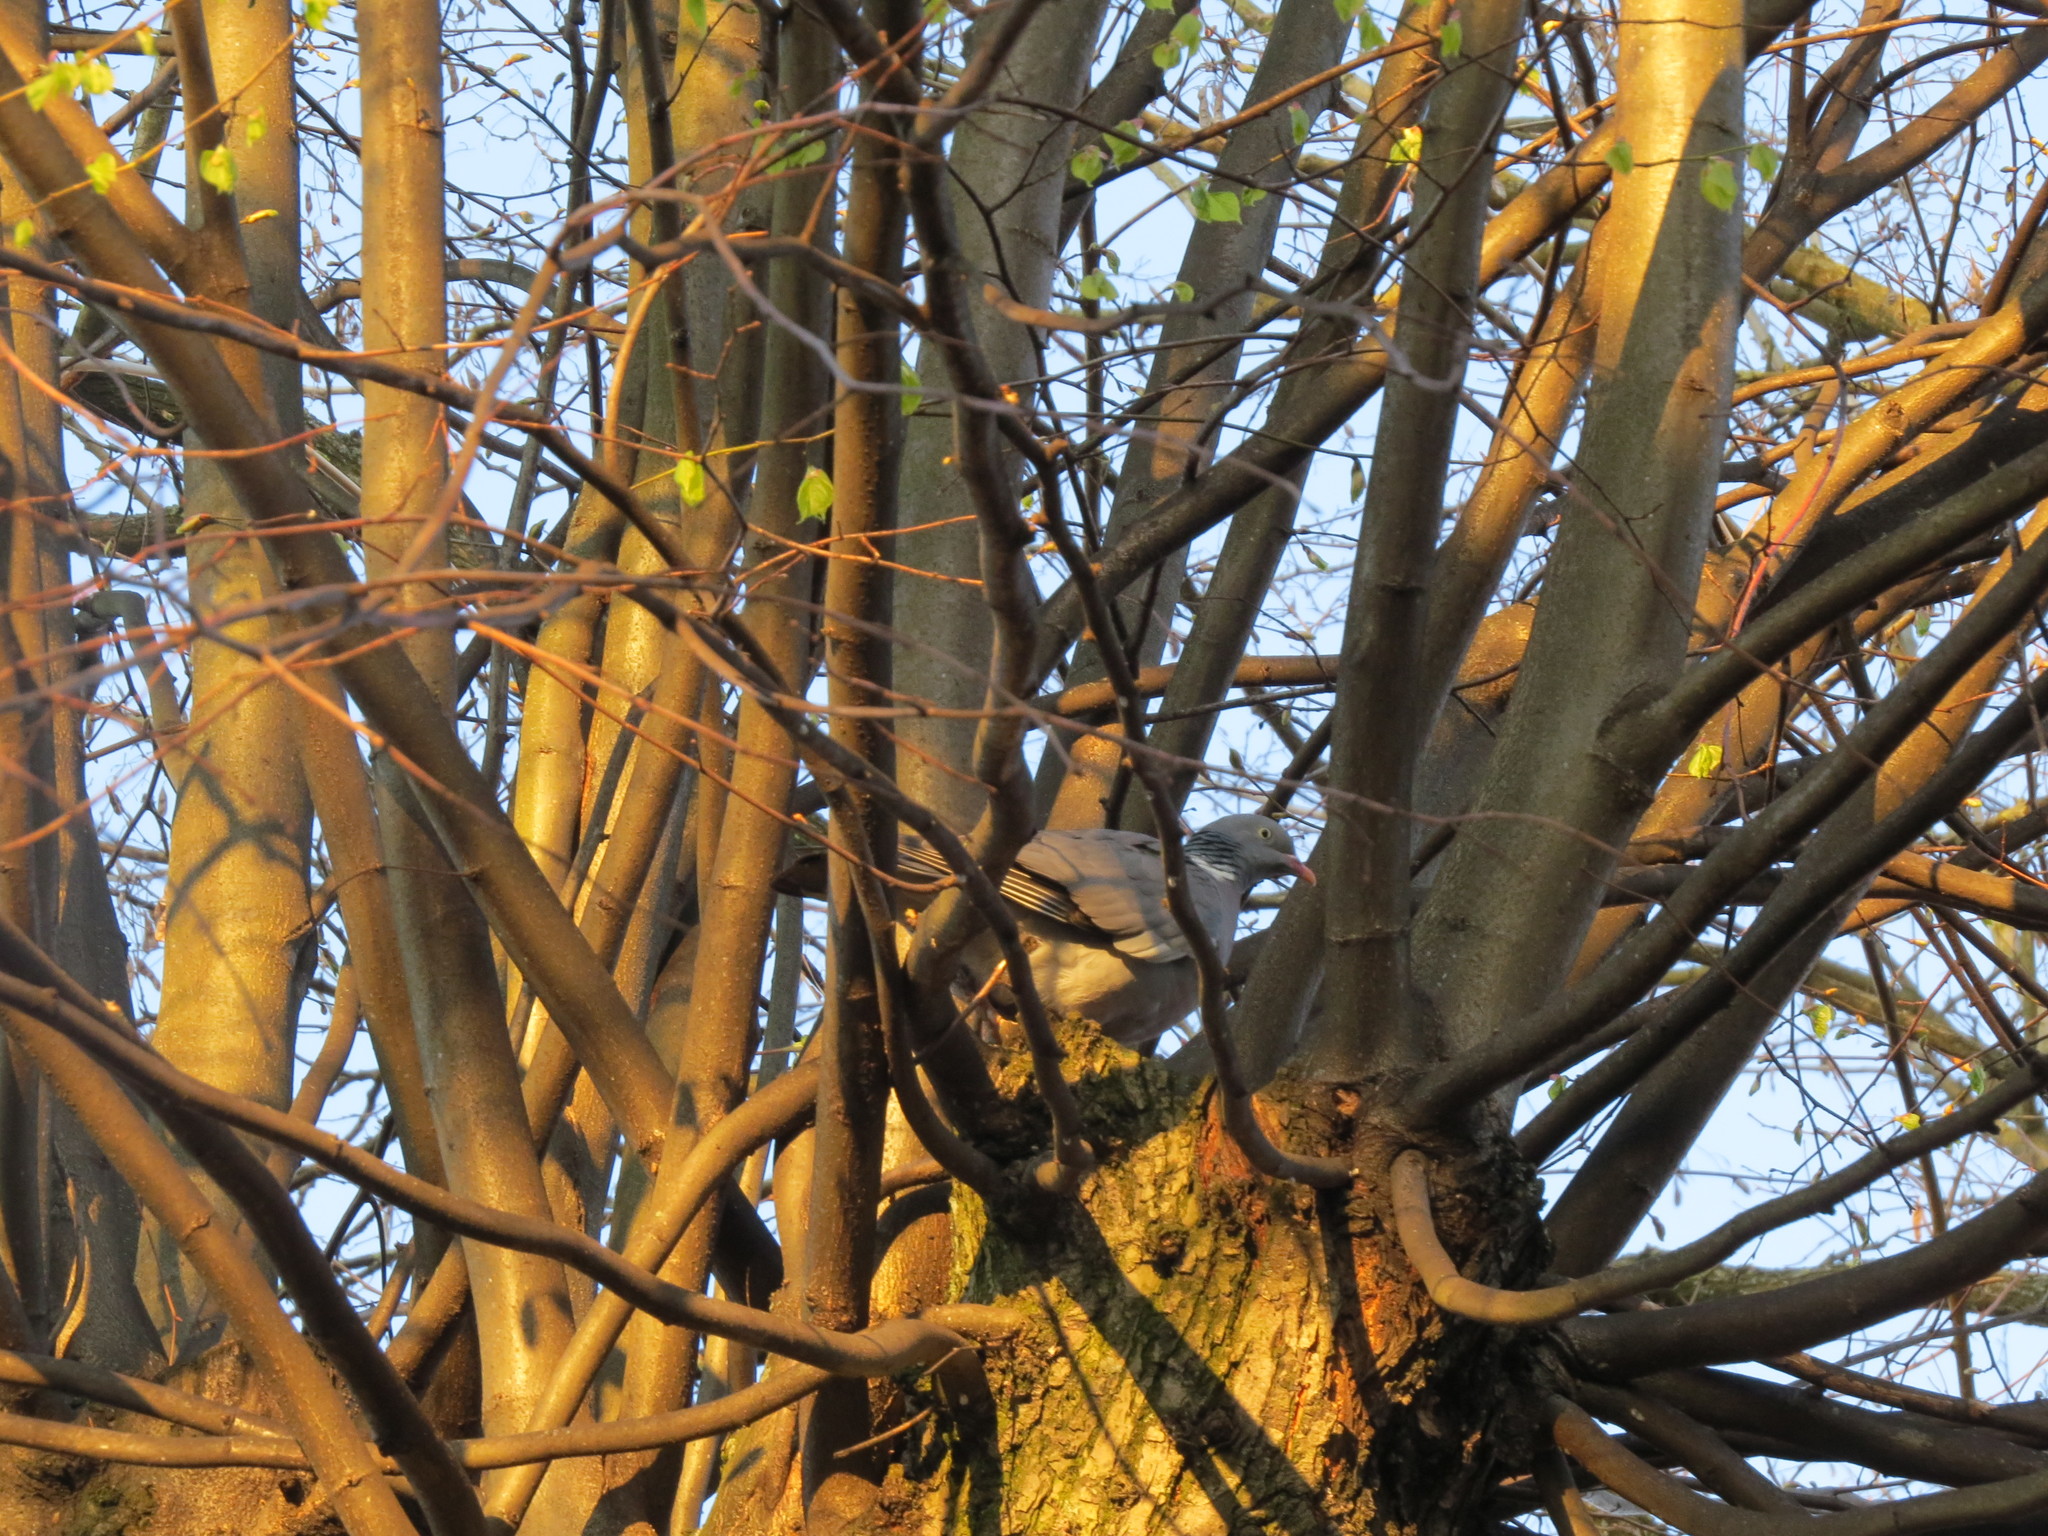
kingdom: Animalia
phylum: Chordata
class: Aves
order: Columbiformes
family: Columbidae
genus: Columba
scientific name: Columba palumbus
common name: Common wood pigeon
